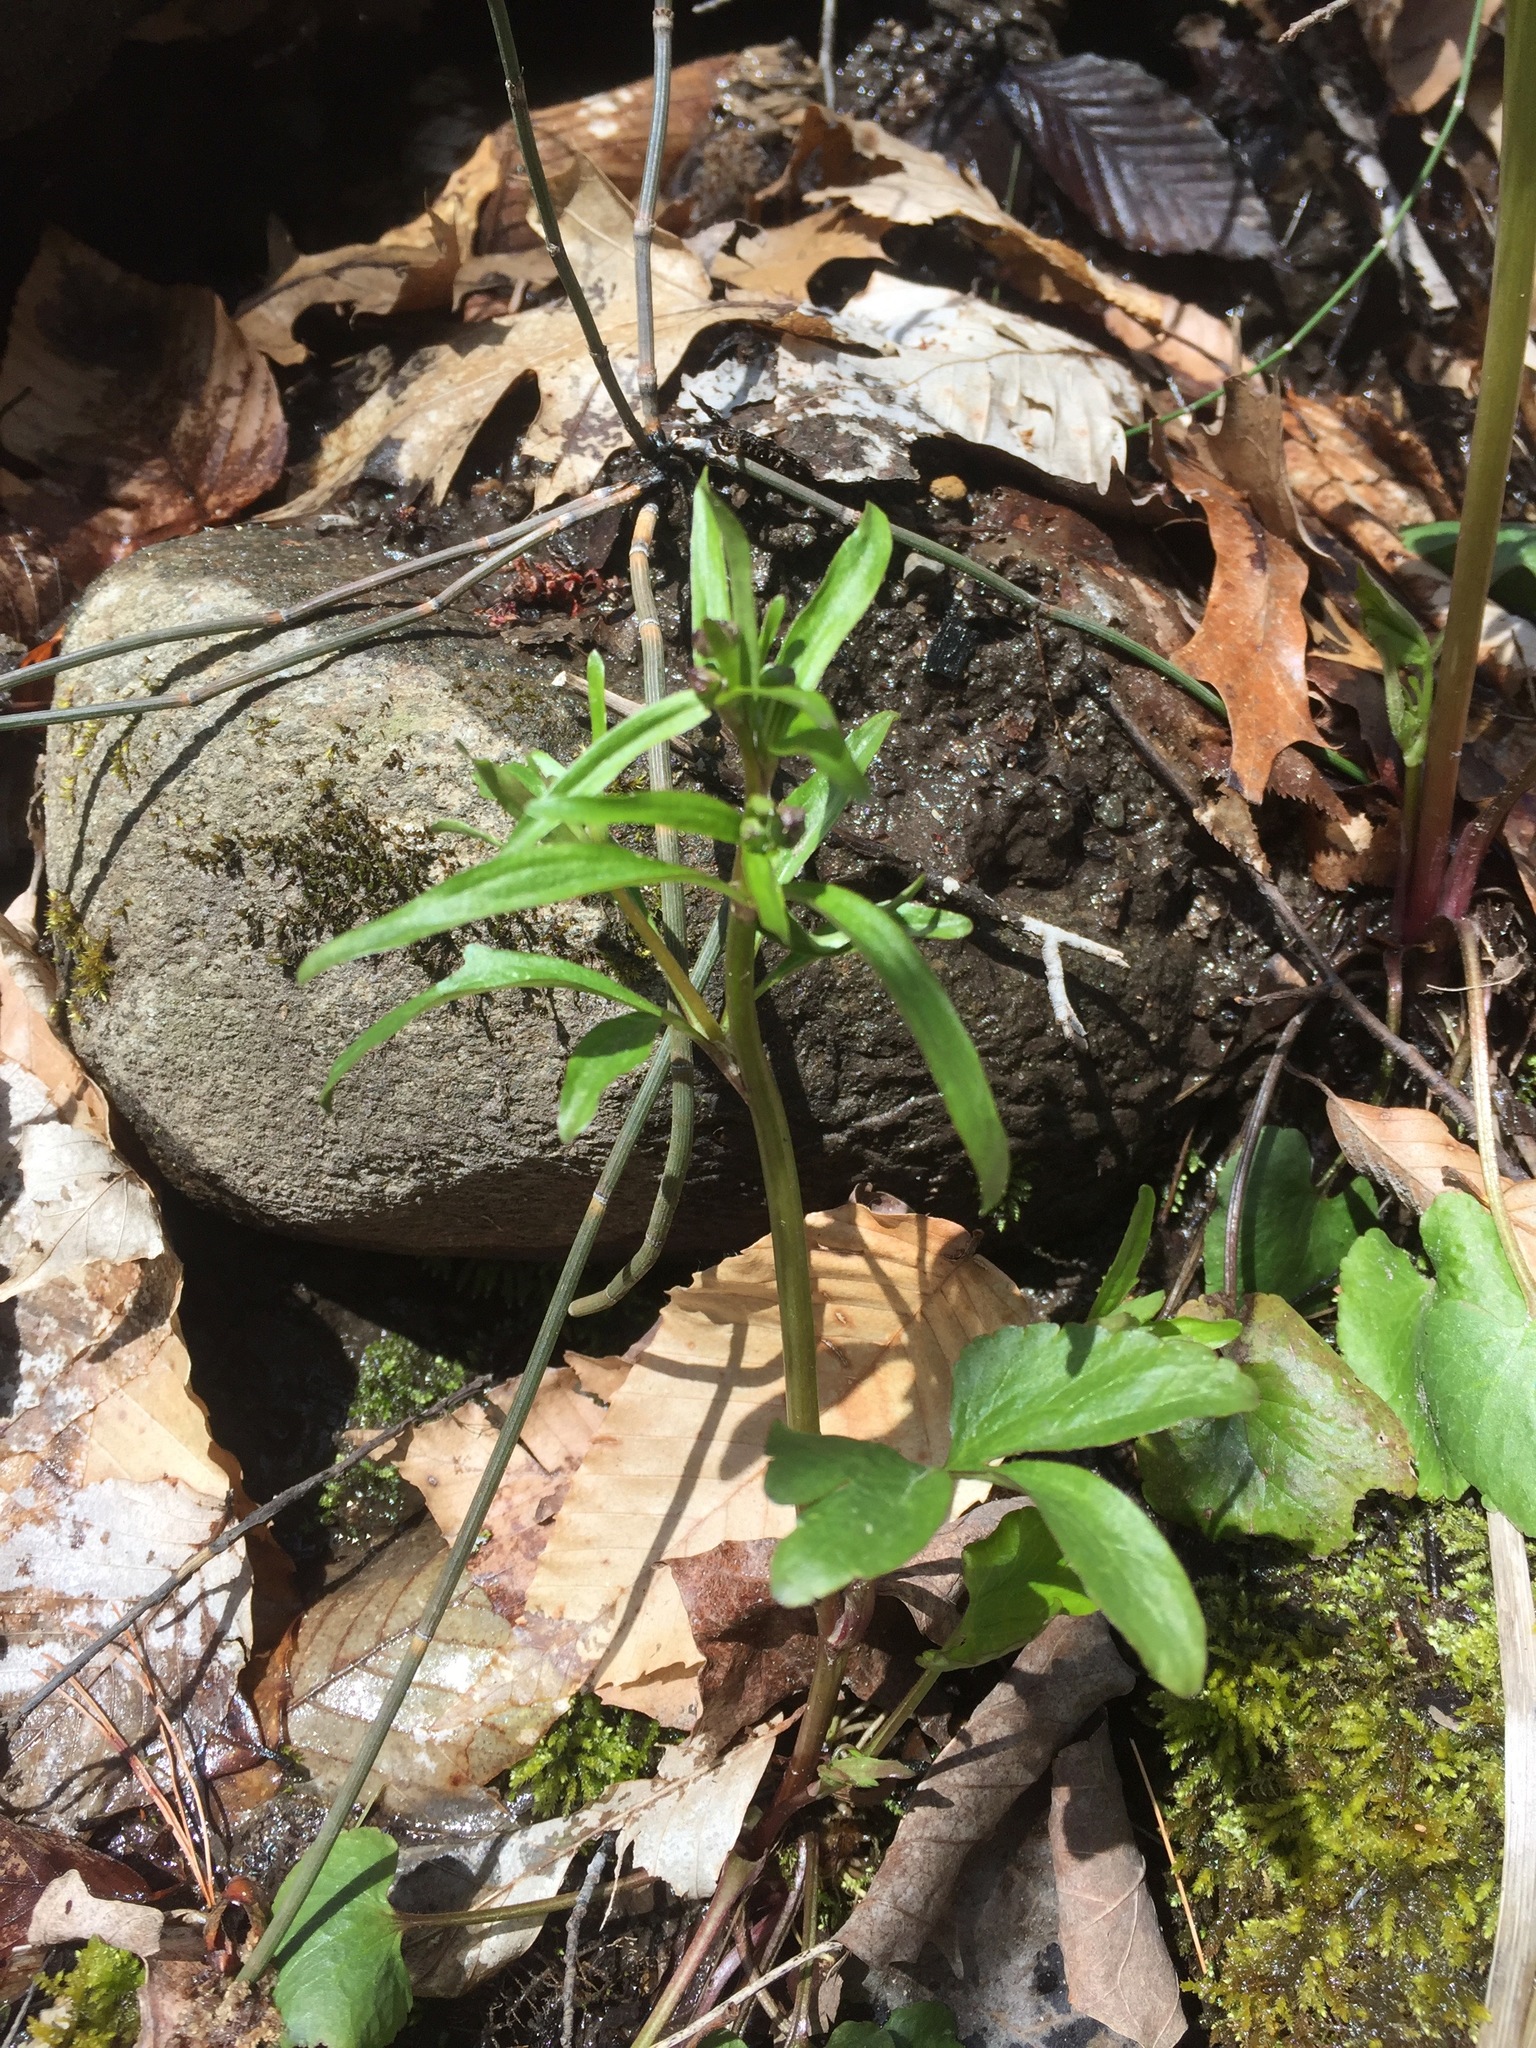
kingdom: Plantae
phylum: Tracheophyta
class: Magnoliopsida
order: Ranunculales
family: Ranunculaceae
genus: Ranunculus
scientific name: Ranunculus abortivus
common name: Early wood buttercup
